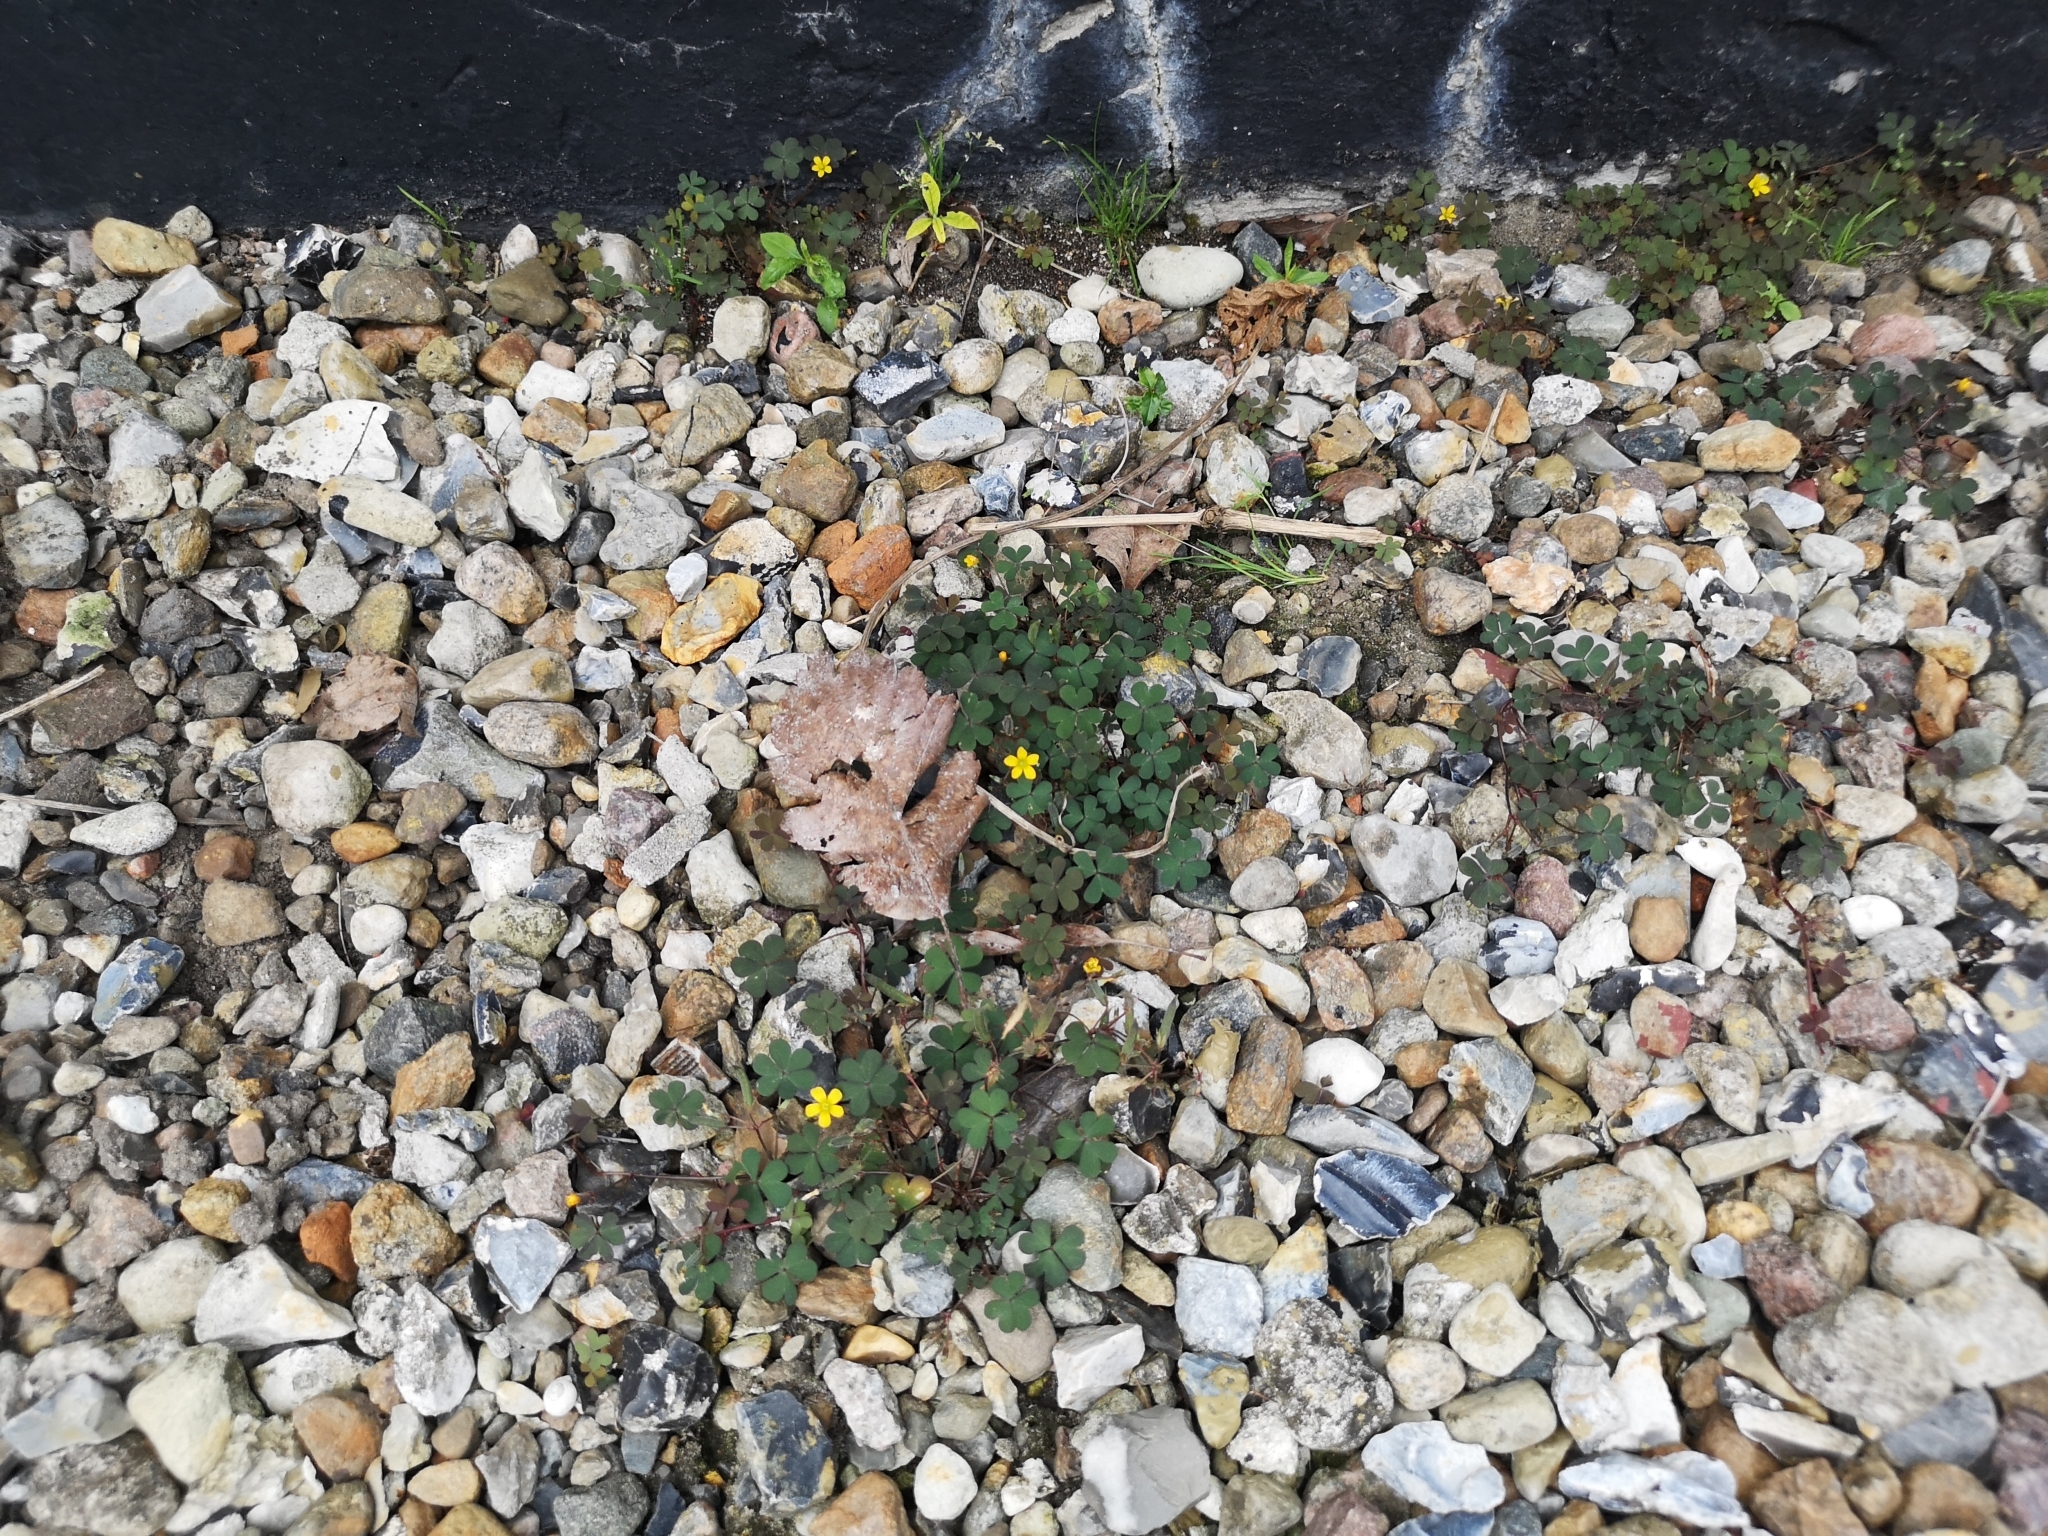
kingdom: Plantae
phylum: Tracheophyta
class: Magnoliopsida
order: Oxalidales
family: Oxalidaceae
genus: Oxalis
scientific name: Oxalis corniculata
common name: Procumbent yellow-sorrel
